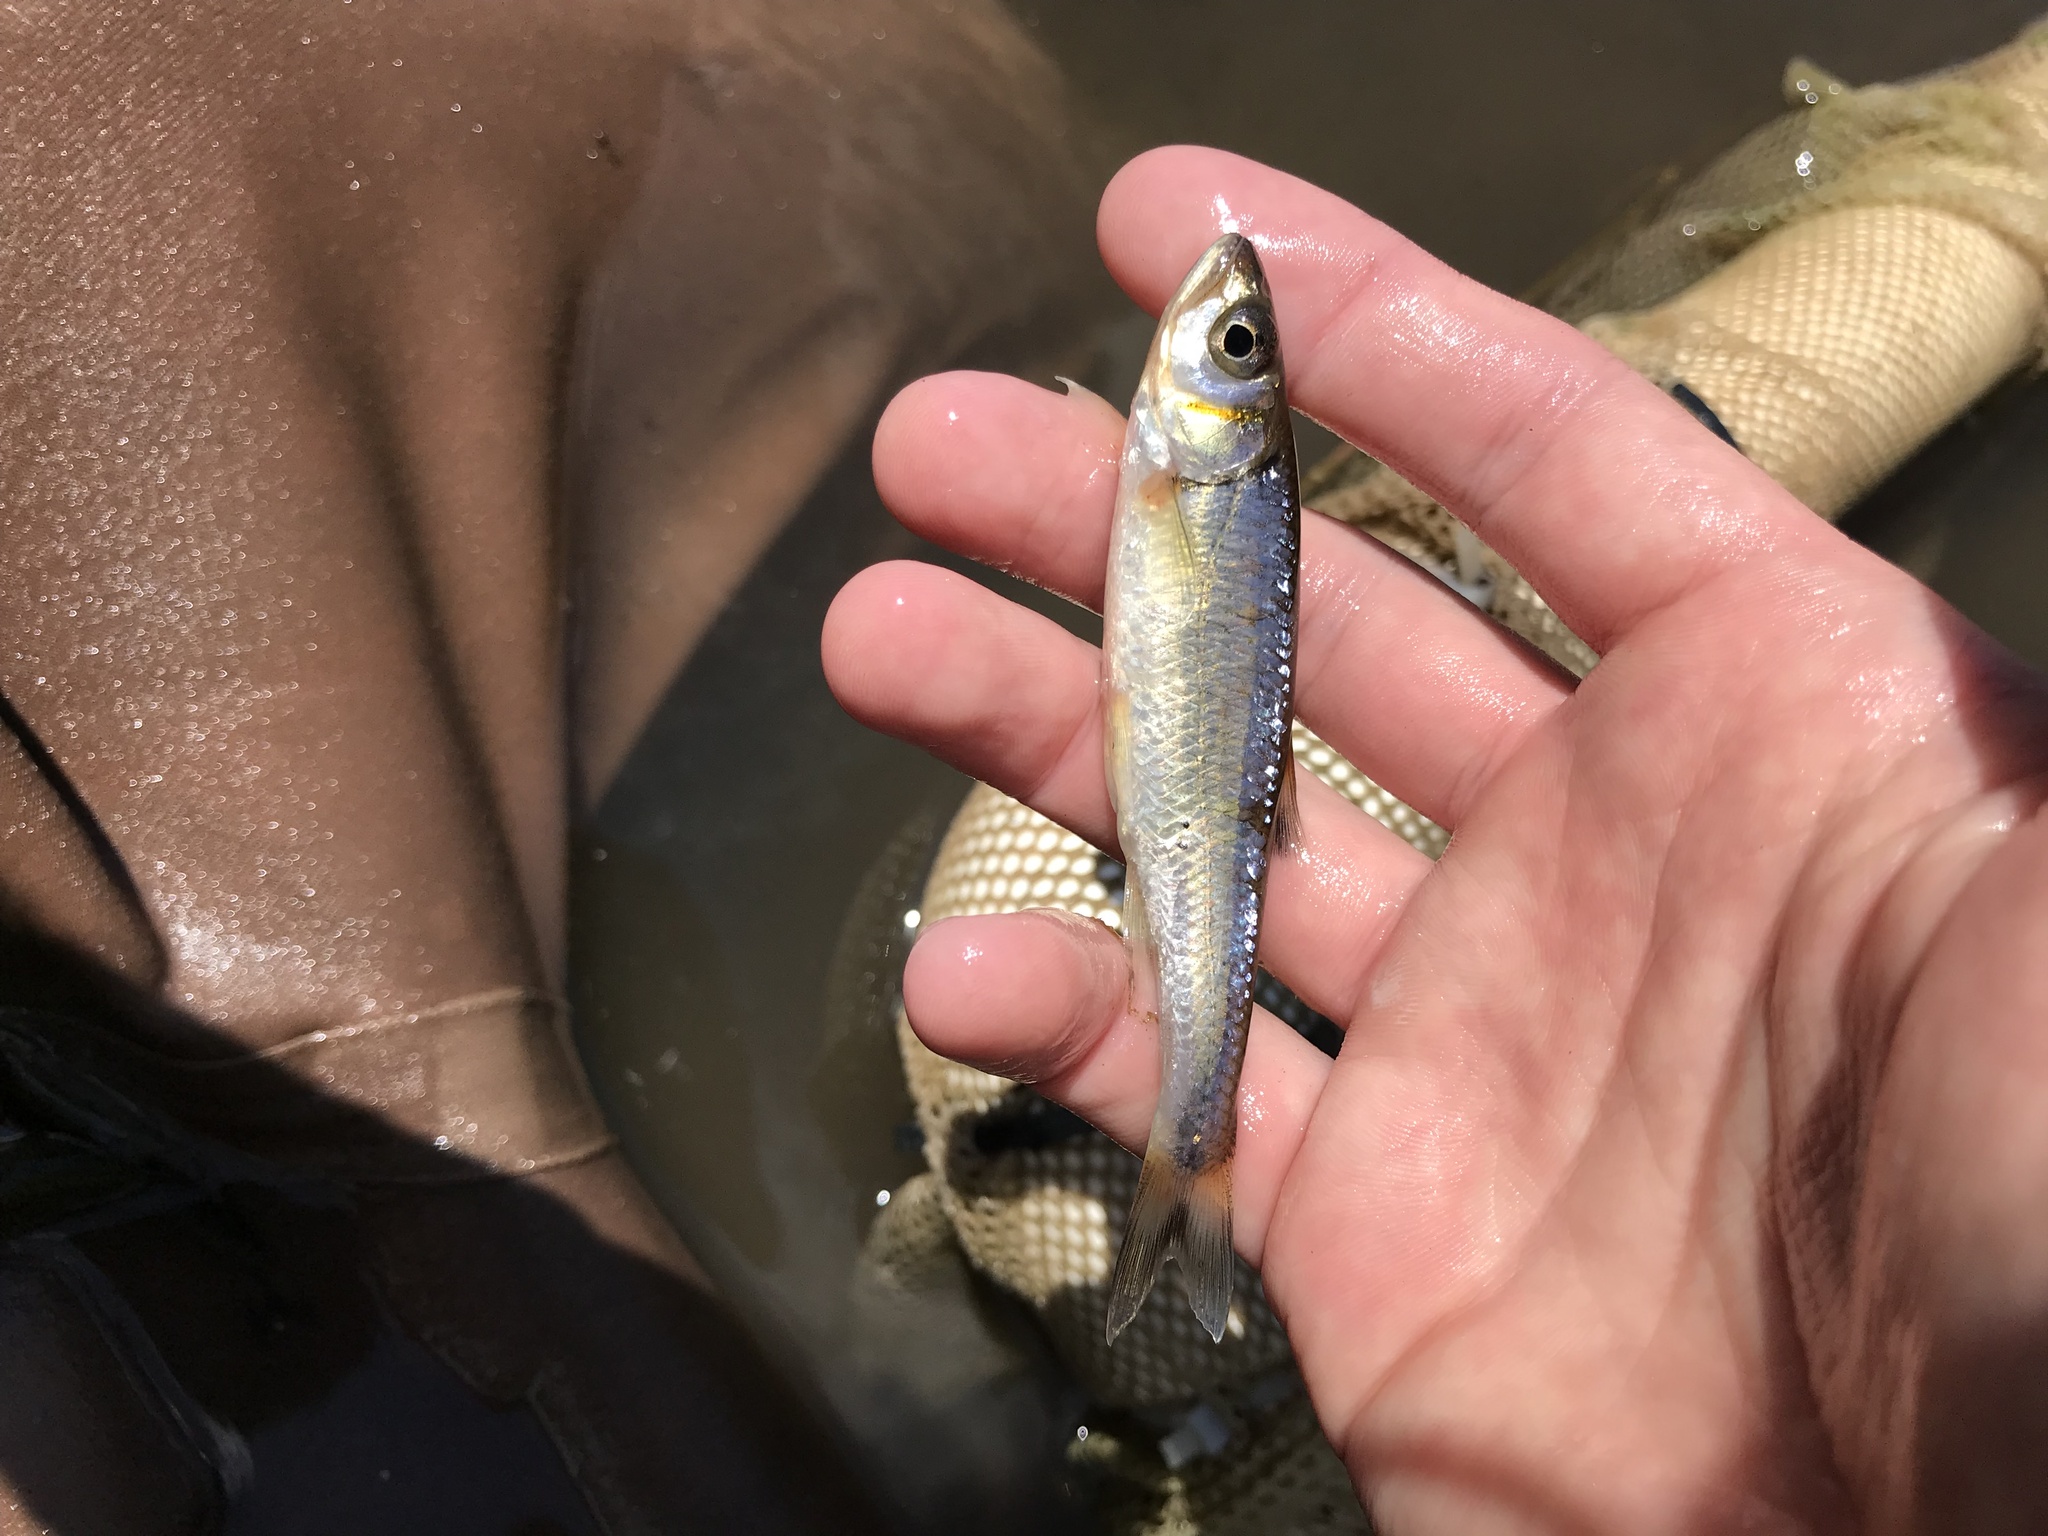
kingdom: Animalia
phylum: Chordata
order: Cypriniformes
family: Cyprinidae
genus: Luxilus
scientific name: Luxilus
